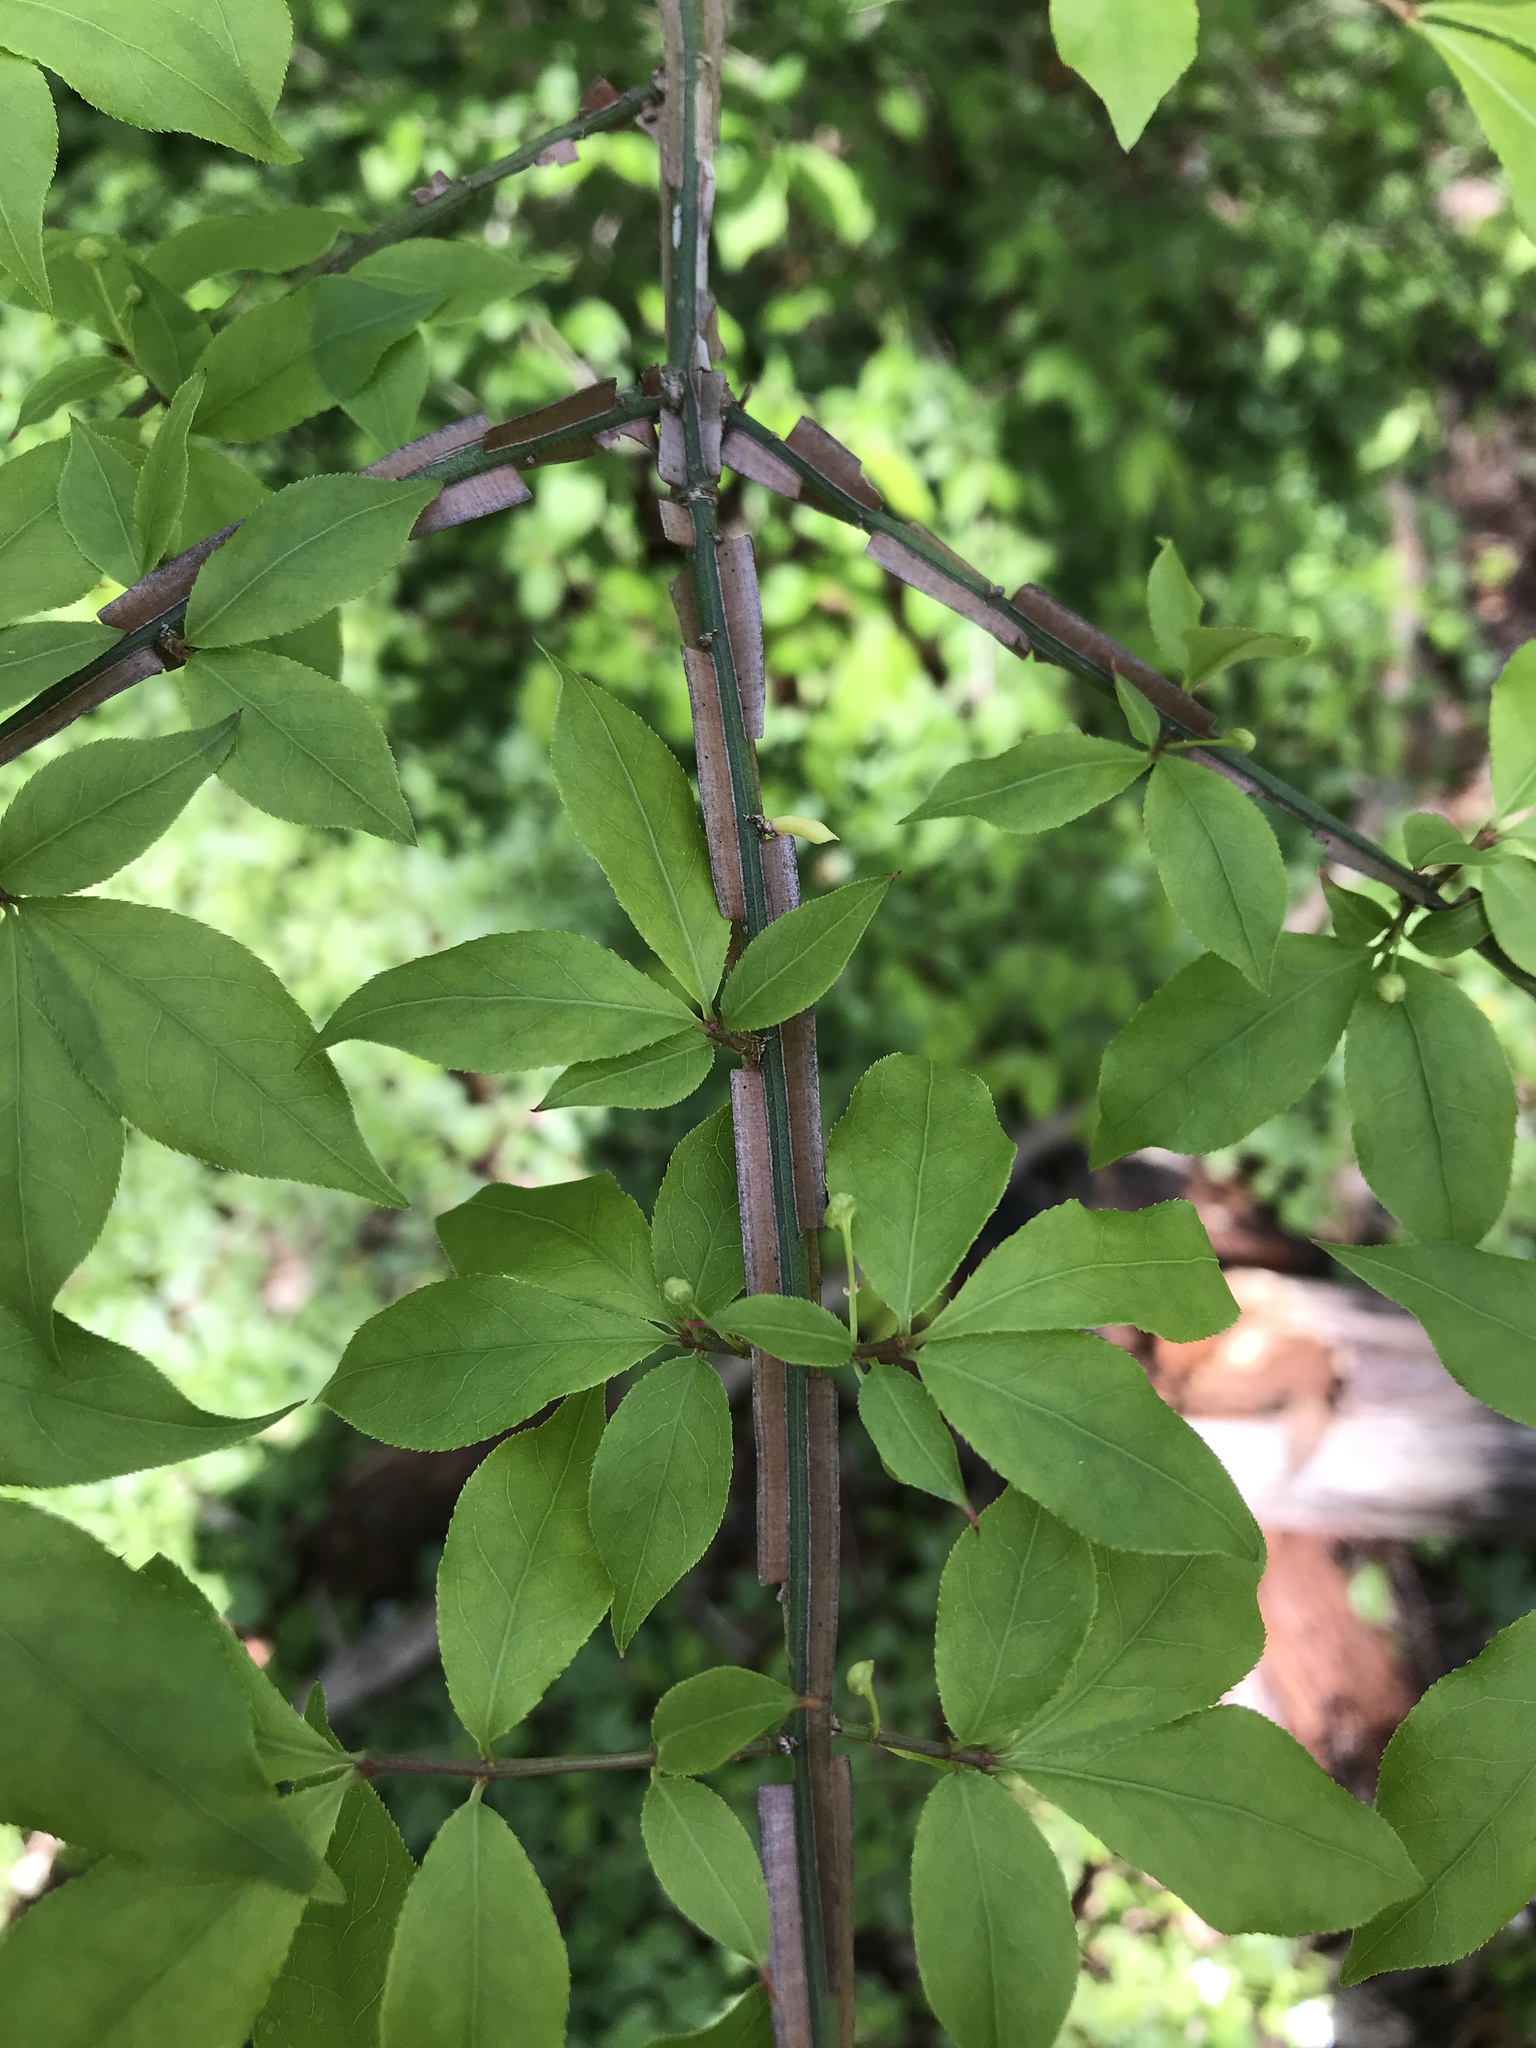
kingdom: Plantae
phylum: Tracheophyta
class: Magnoliopsida
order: Celastrales
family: Celastraceae
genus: Euonymus
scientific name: Euonymus alatus
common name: Winged euonymus
